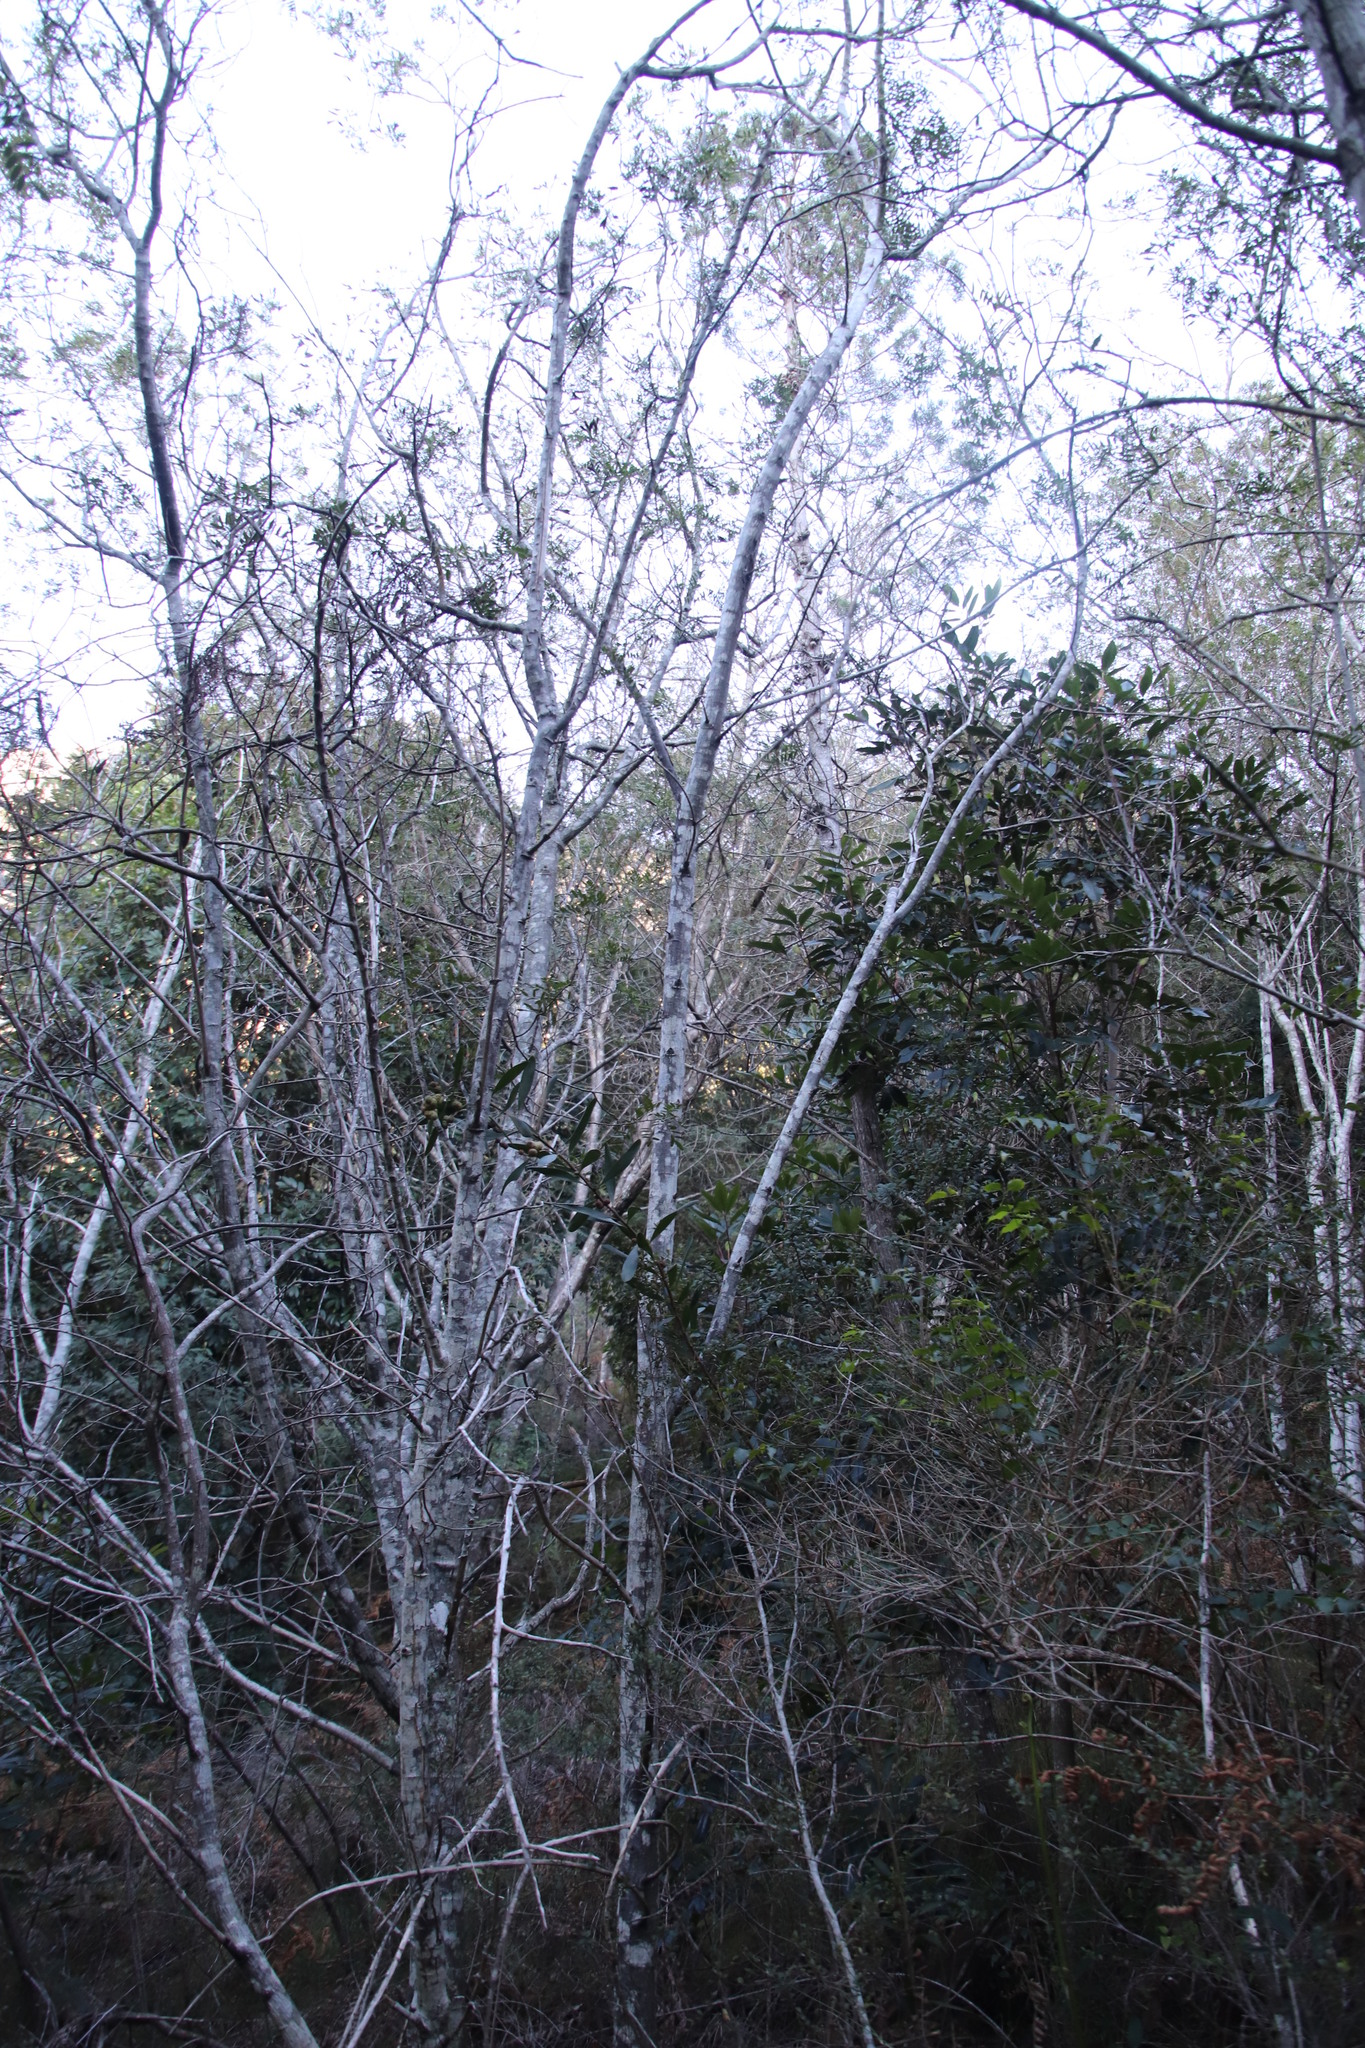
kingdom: Plantae
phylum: Tracheophyta
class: Magnoliopsida
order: Fabales
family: Fabaceae
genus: Virgilia
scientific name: Virgilia oroboides
